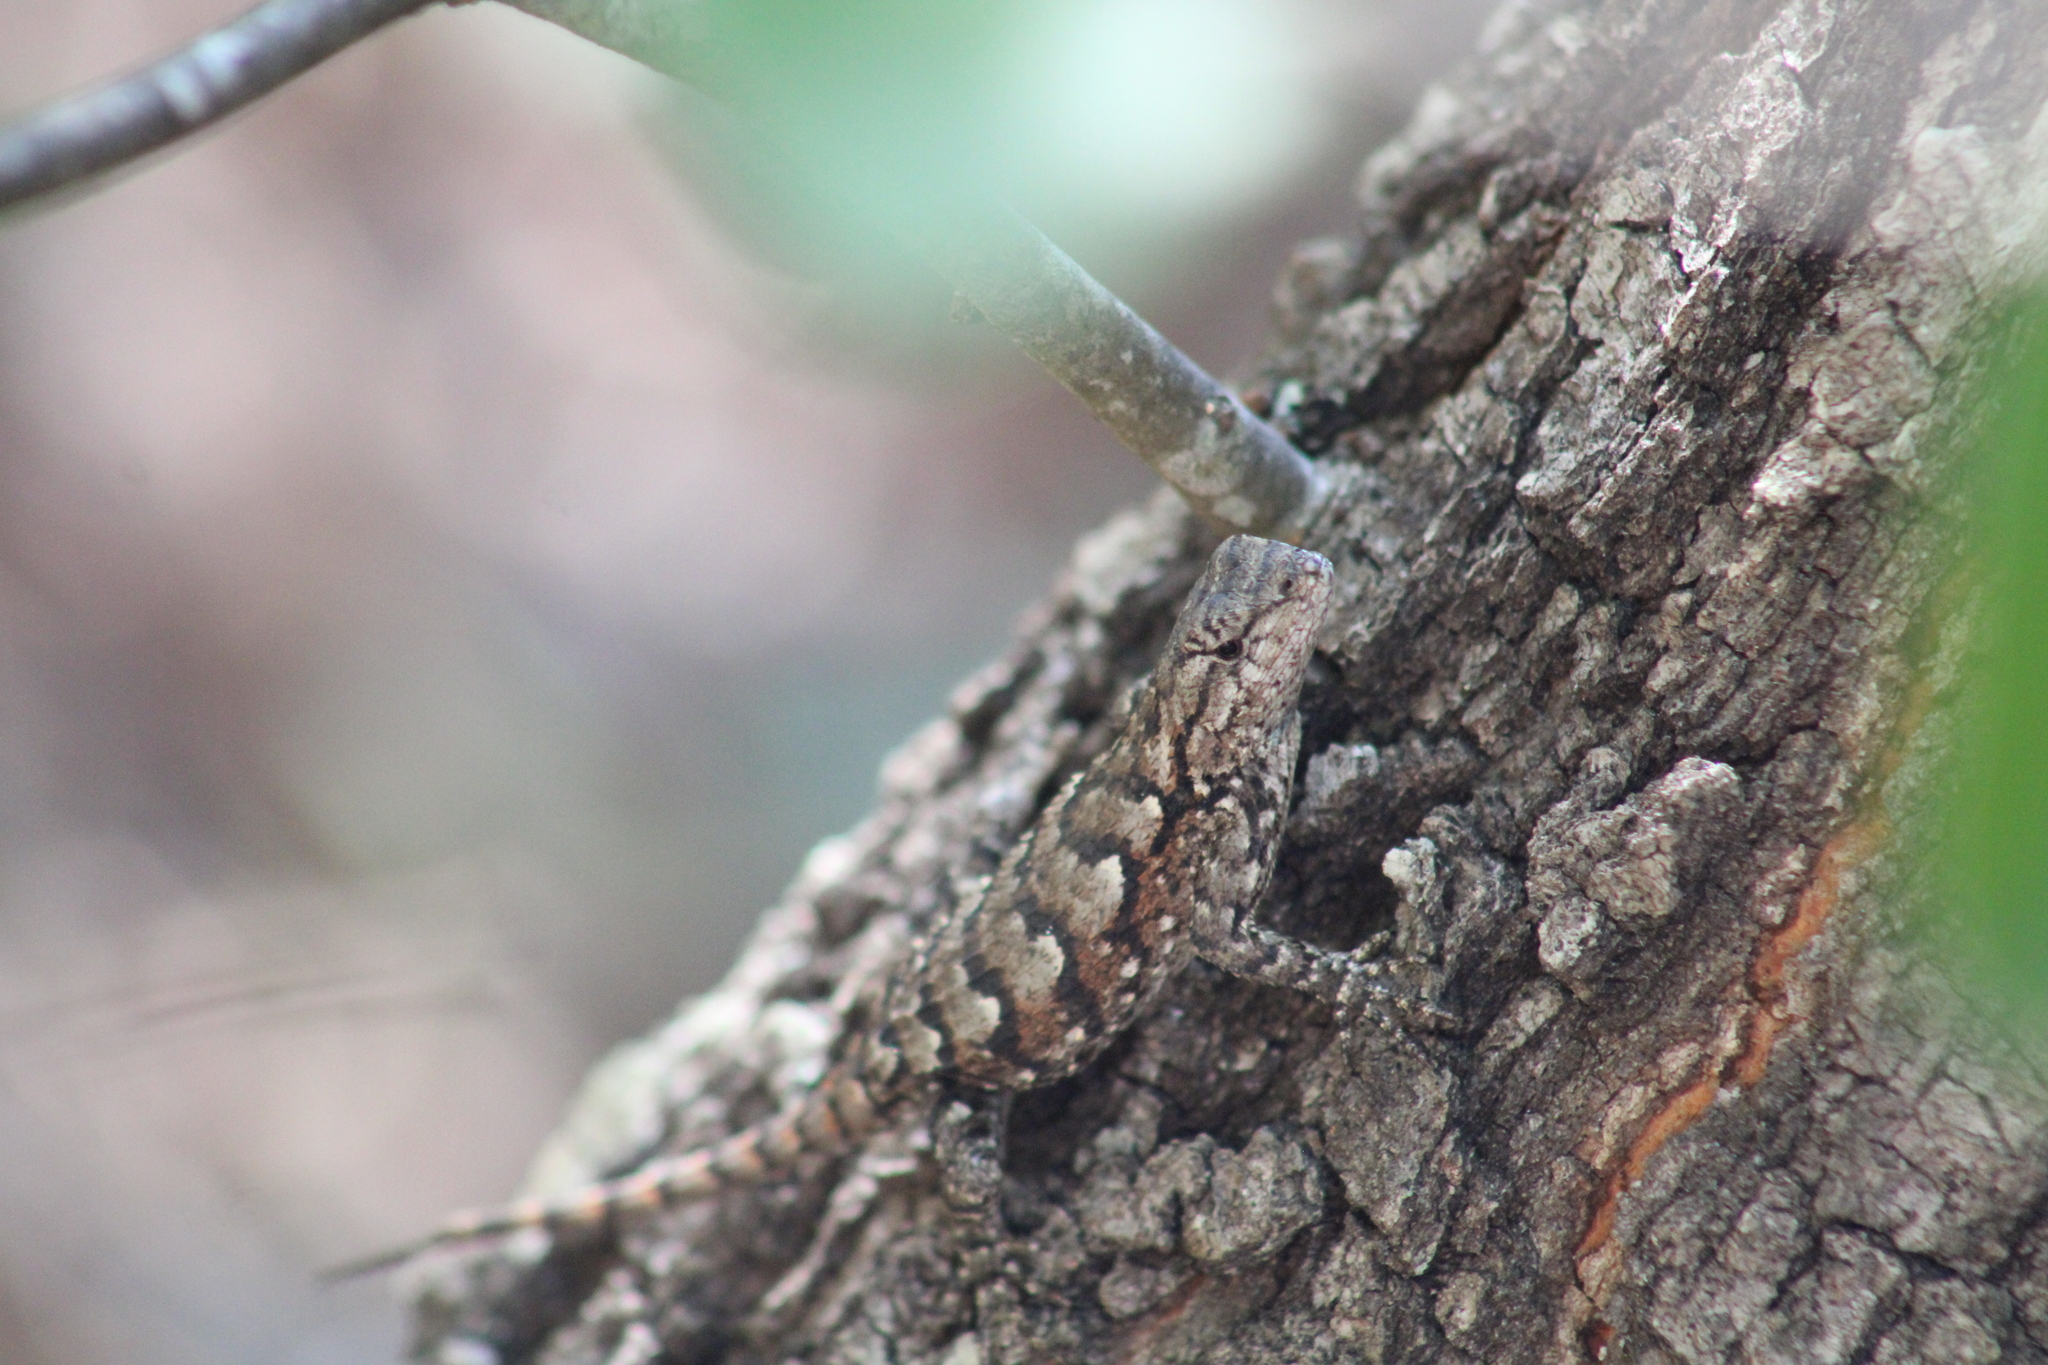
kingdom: Animalia
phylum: Chordata
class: Squamata
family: Phrynosomatidae
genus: Sceloporus
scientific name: Sceloporus undulatus
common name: Eastern fence lizard
